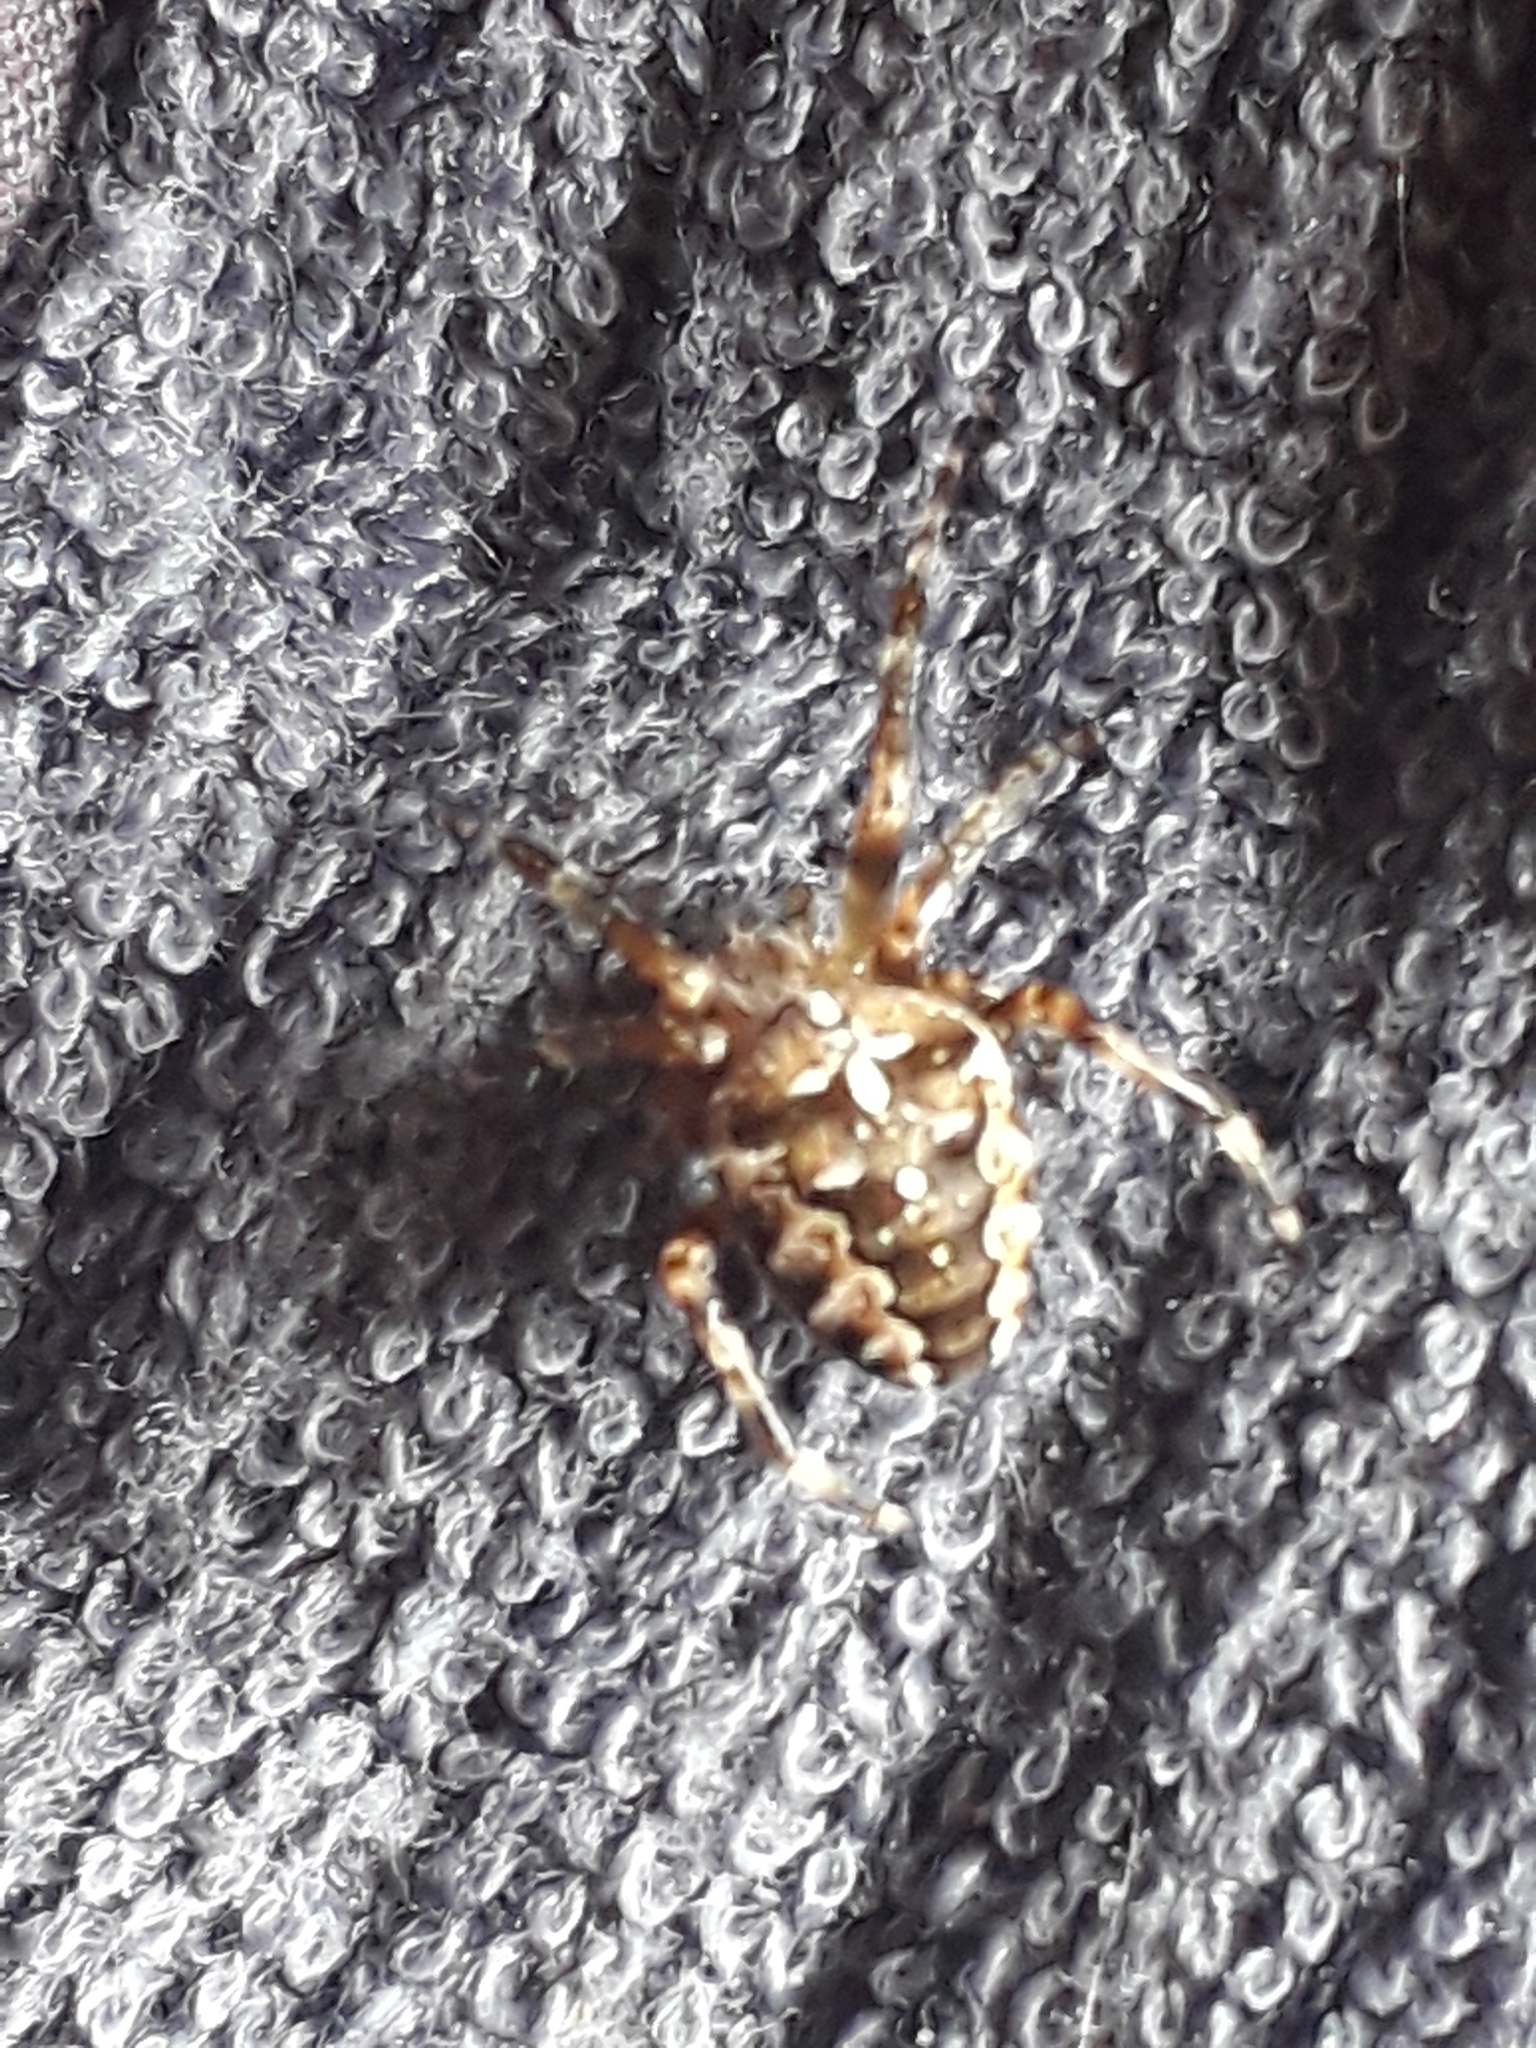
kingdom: Animalia
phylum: Arthropoda
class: Arachnida
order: Araneae
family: Araneidae
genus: Araneus
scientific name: Araneus diadematus
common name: Cross orbweaver
